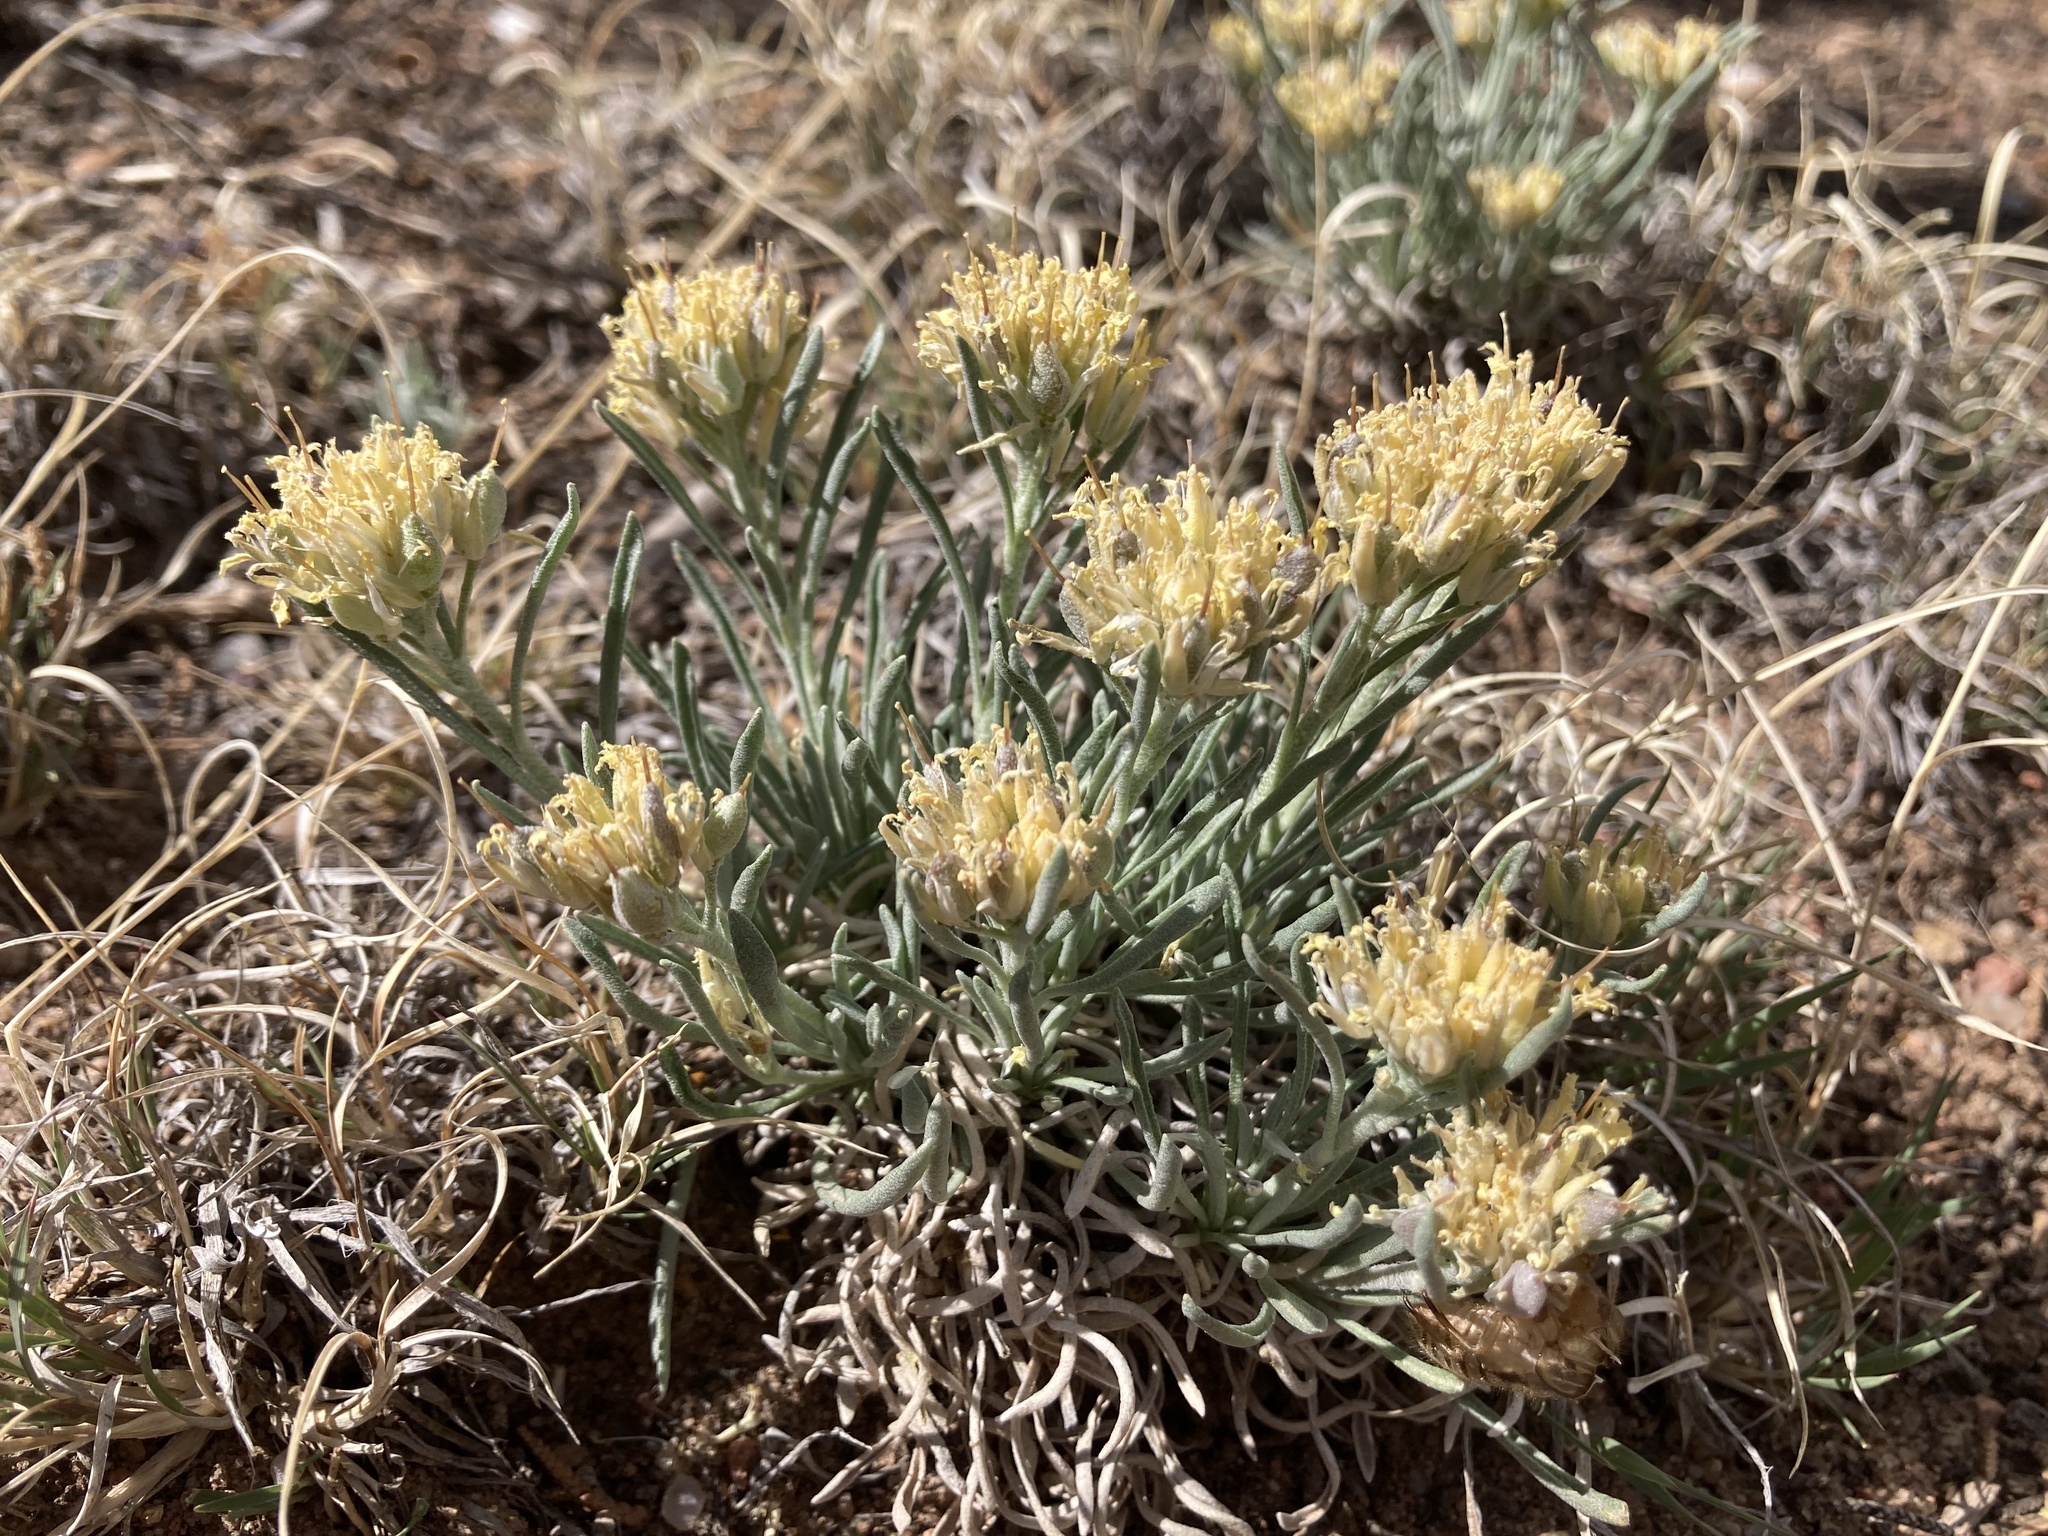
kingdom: Plantae
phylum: Tracheophyta
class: Magnoliopsida
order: Brassicales
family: Brassicaceae
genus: Physaria
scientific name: Physaria fendleri
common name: Fendler's bladderpod
